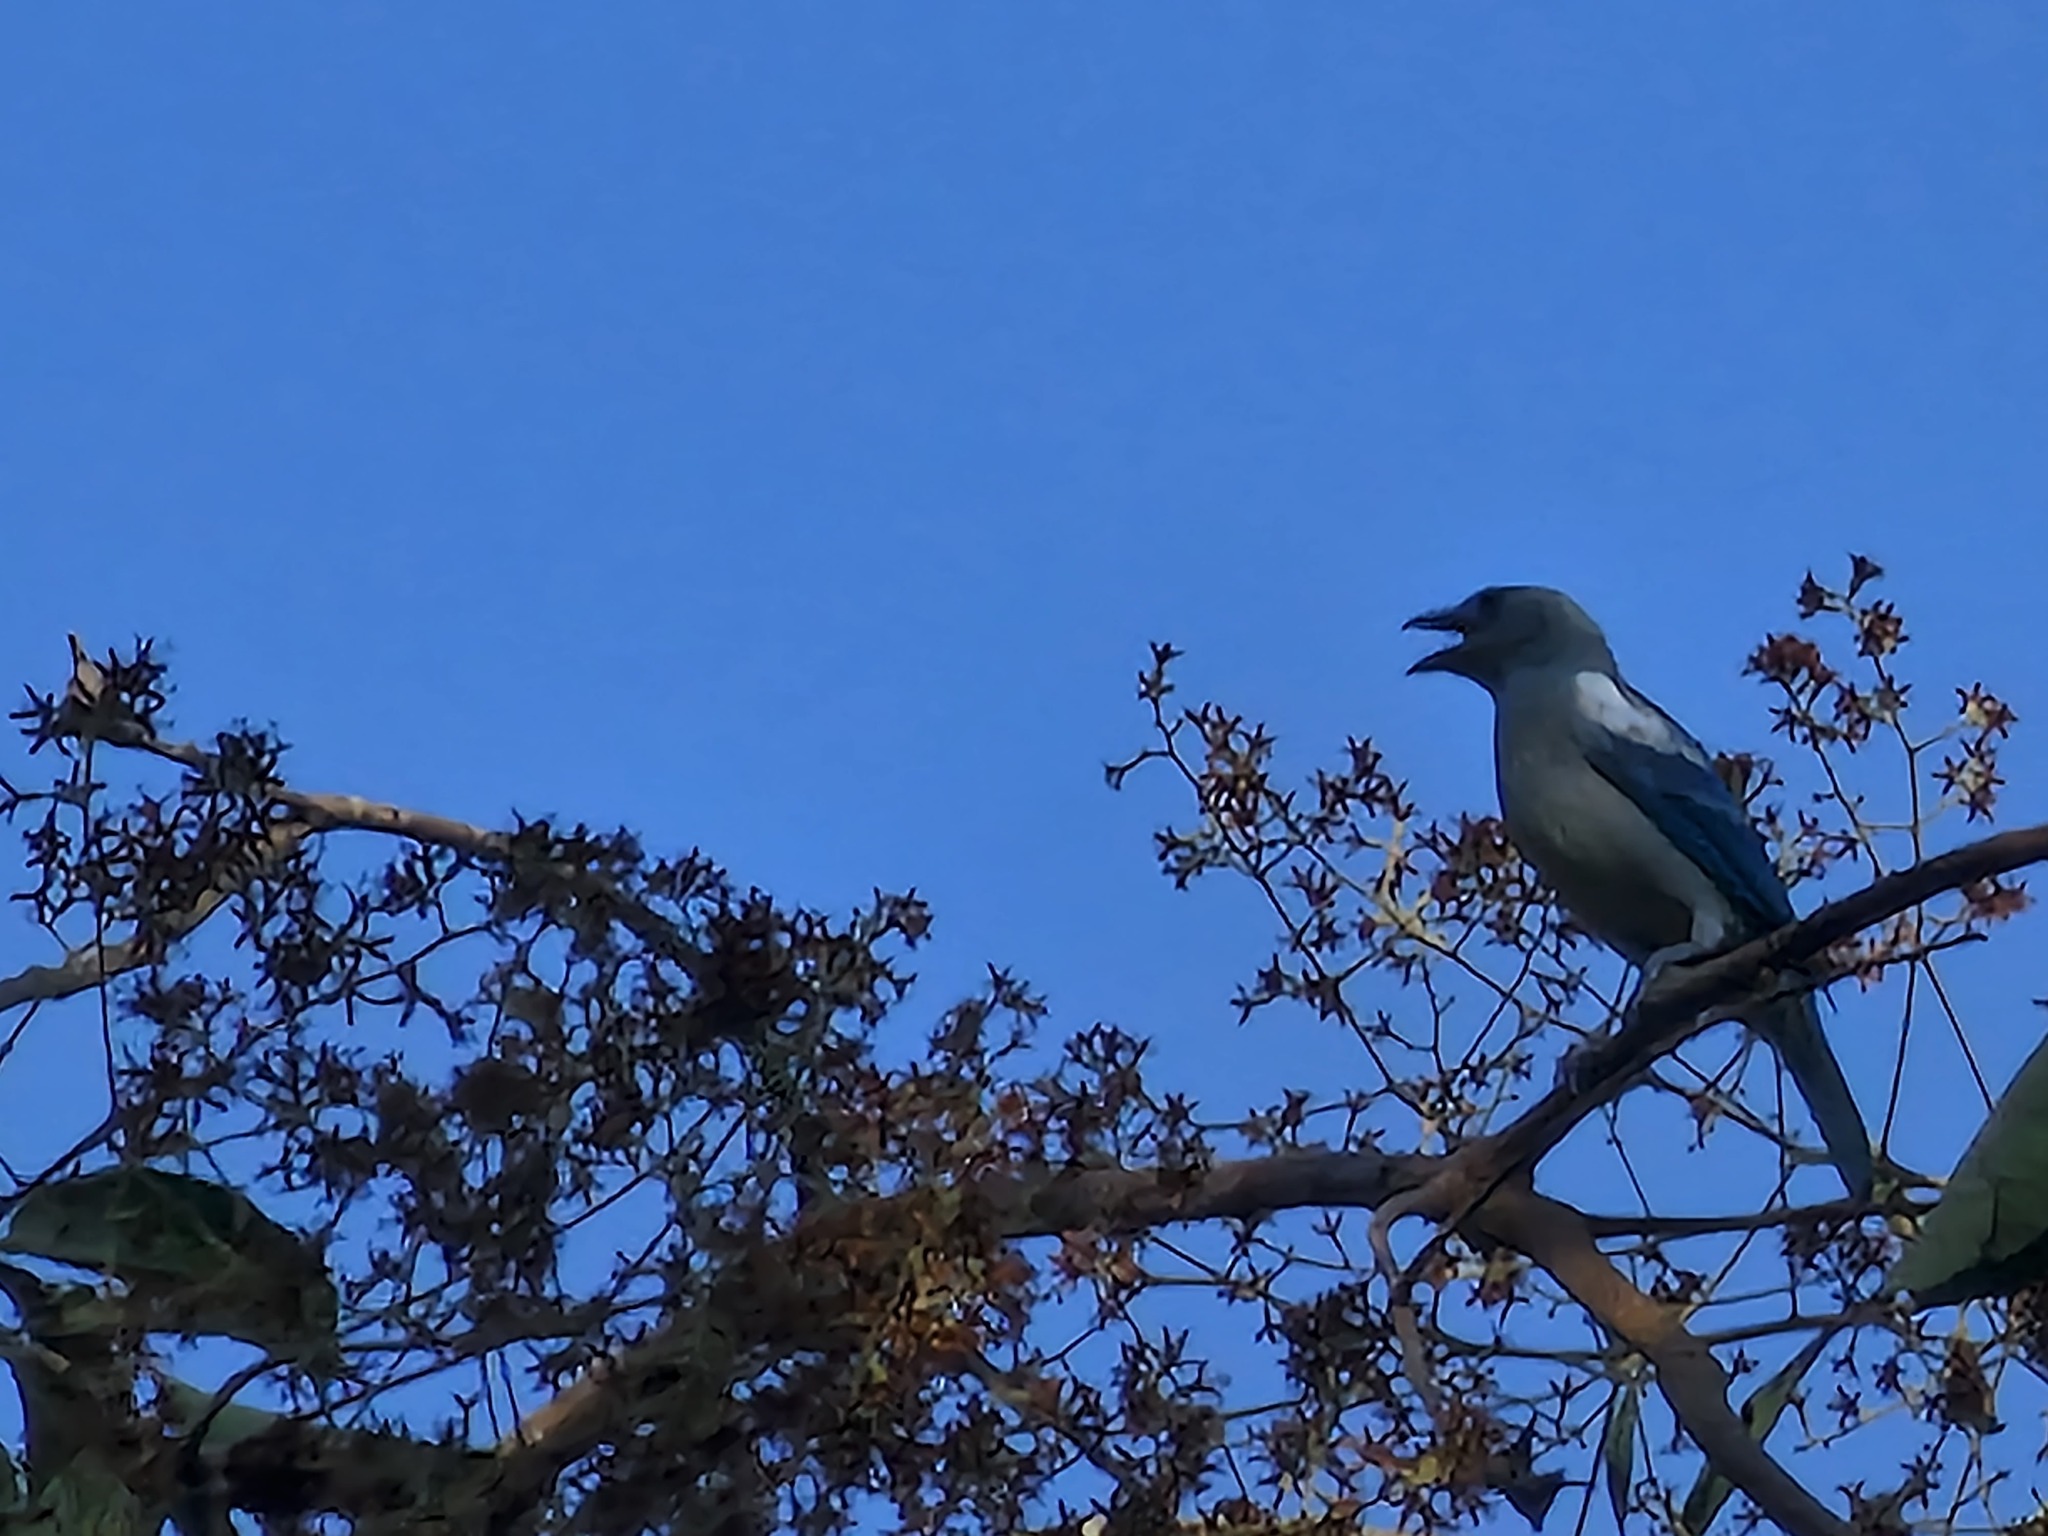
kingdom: Animalia
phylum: Chordata
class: Aves
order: Passeriformes
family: Thraupidae
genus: Thraupis
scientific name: Thraupis episcopus
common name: Blue-grey tanager
